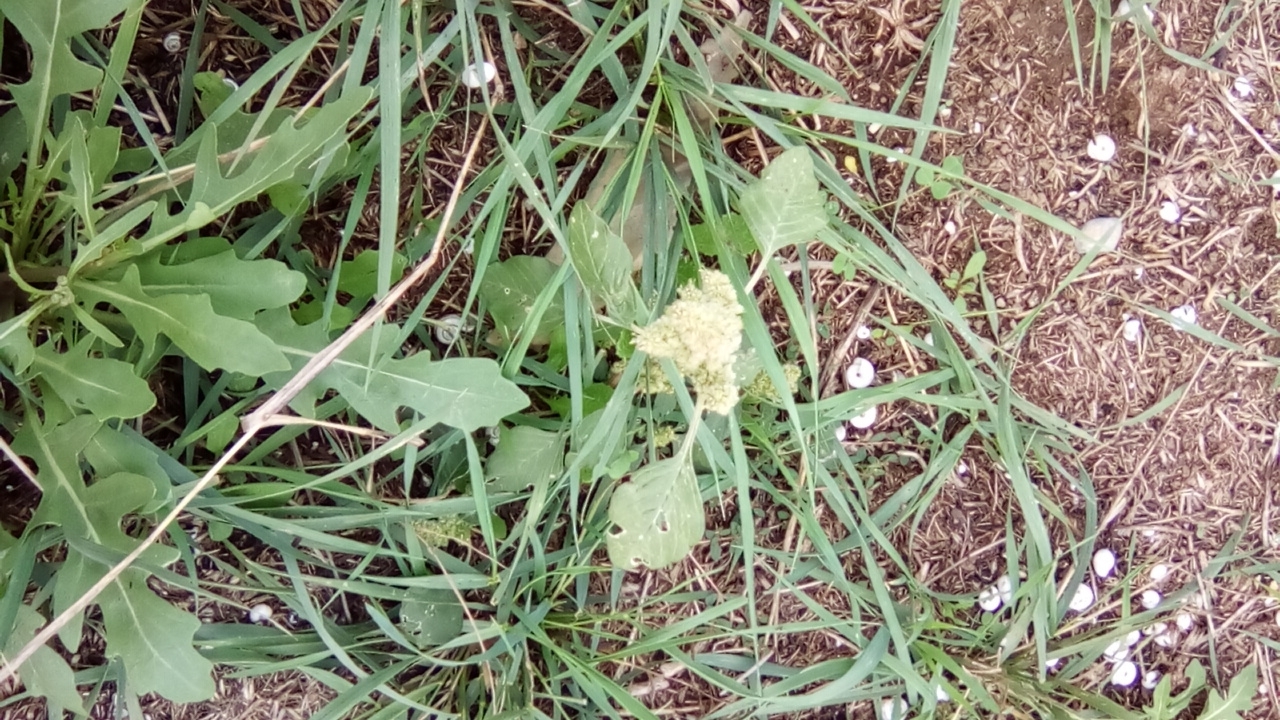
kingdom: Plantae
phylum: Tracheophyta
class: Magnoliopsida
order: Caryophyllales
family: Amaranthaceae
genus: Amaranthus
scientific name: Amaranthus retroflexus
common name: Redroot amaranth
